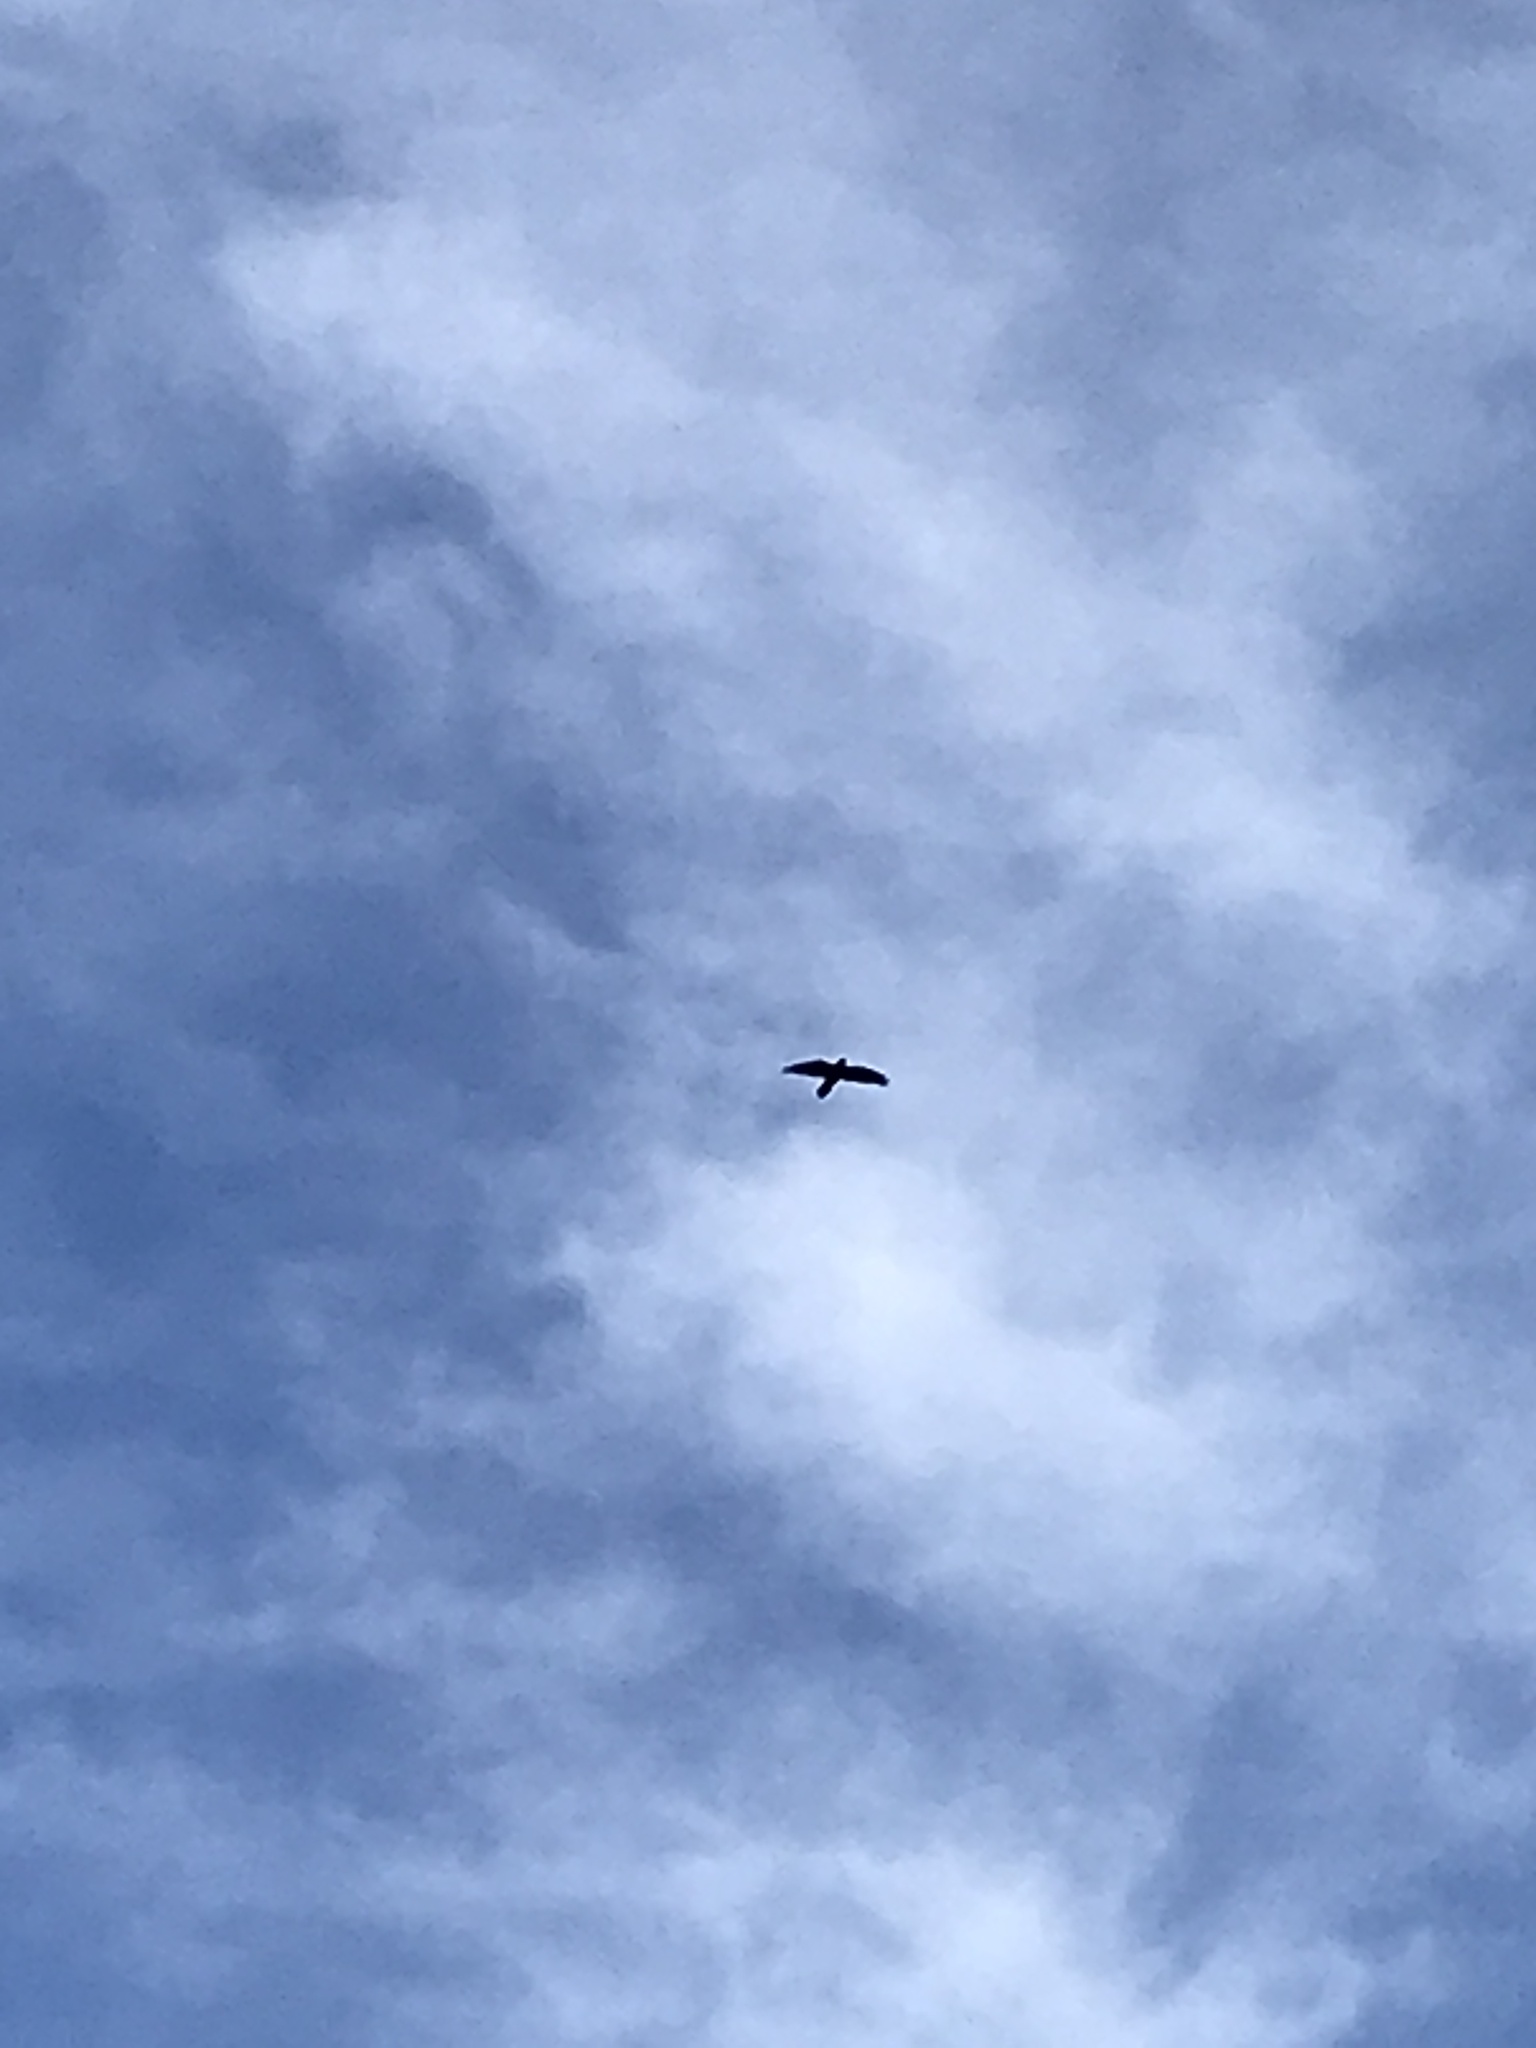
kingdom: Animalia
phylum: Chordata
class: Aves
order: Passeriformes
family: Corvidae
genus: Corvus
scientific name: Corvus corax
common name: Common raven
